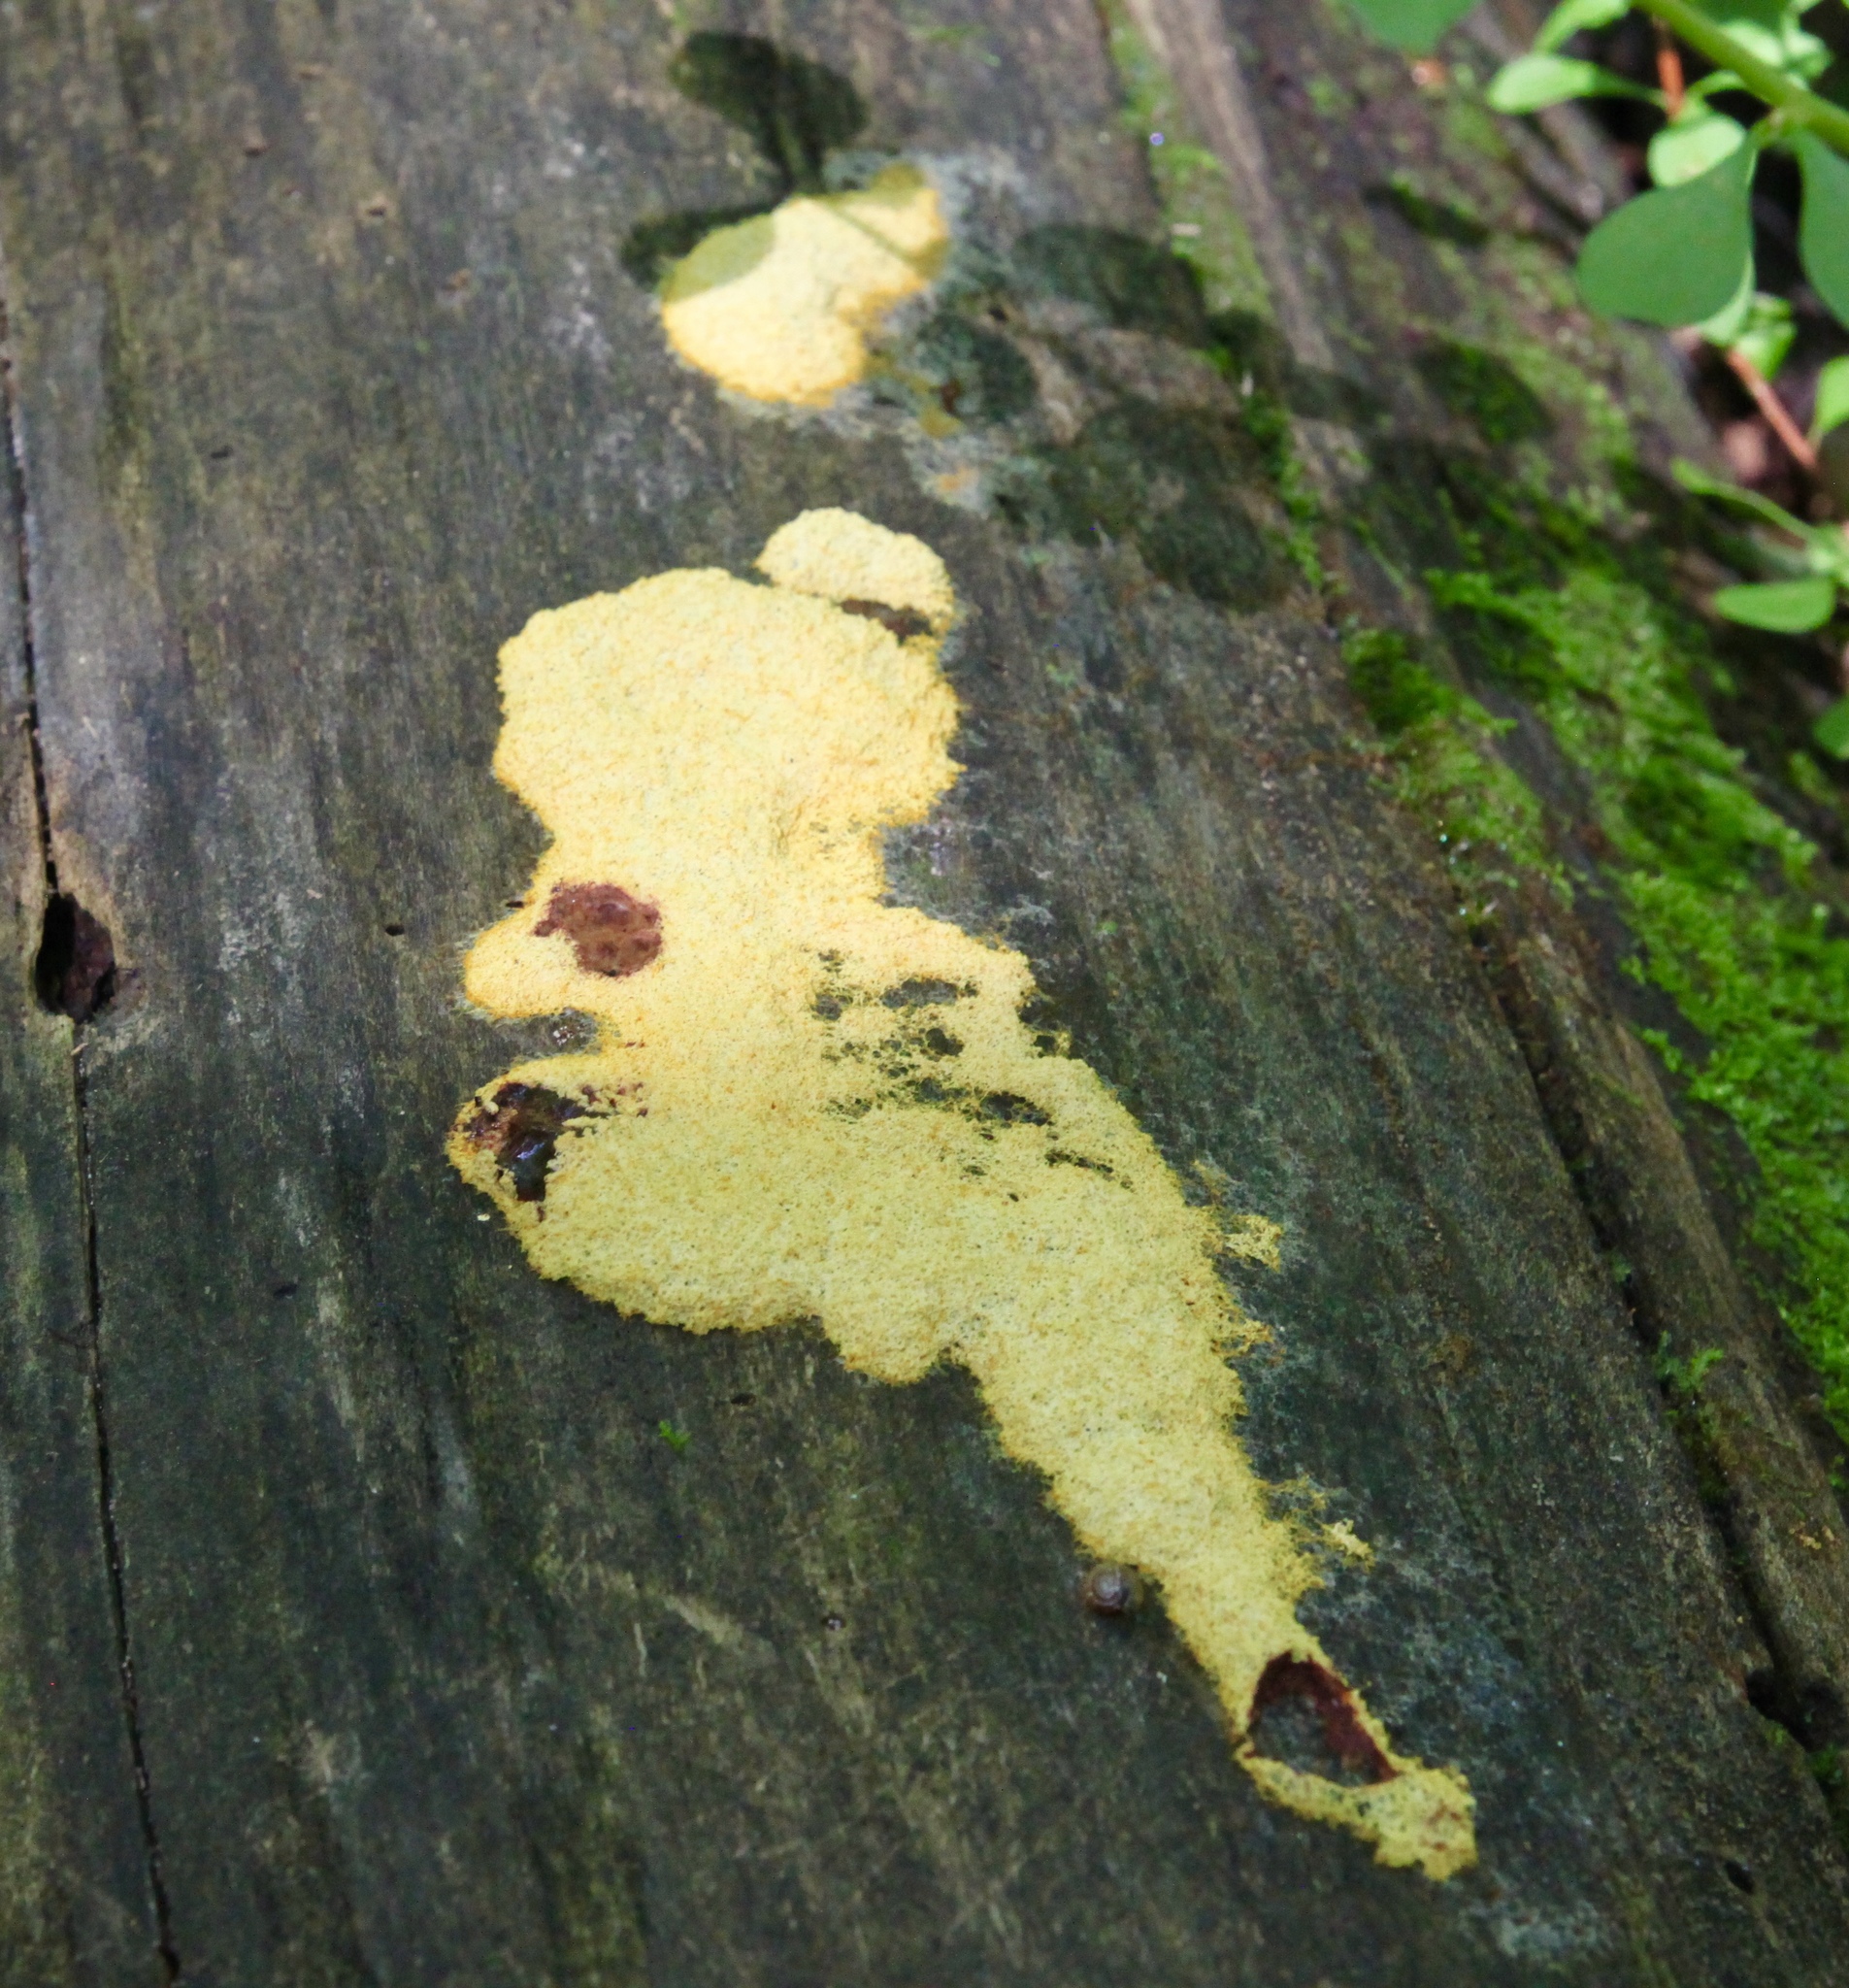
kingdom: Protozoa
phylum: Mycetozoa
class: Myxomycetes
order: Physarales
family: Physaraceae
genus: Fuligo
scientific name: Fuligo septica
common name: Dog vomit slime mold
